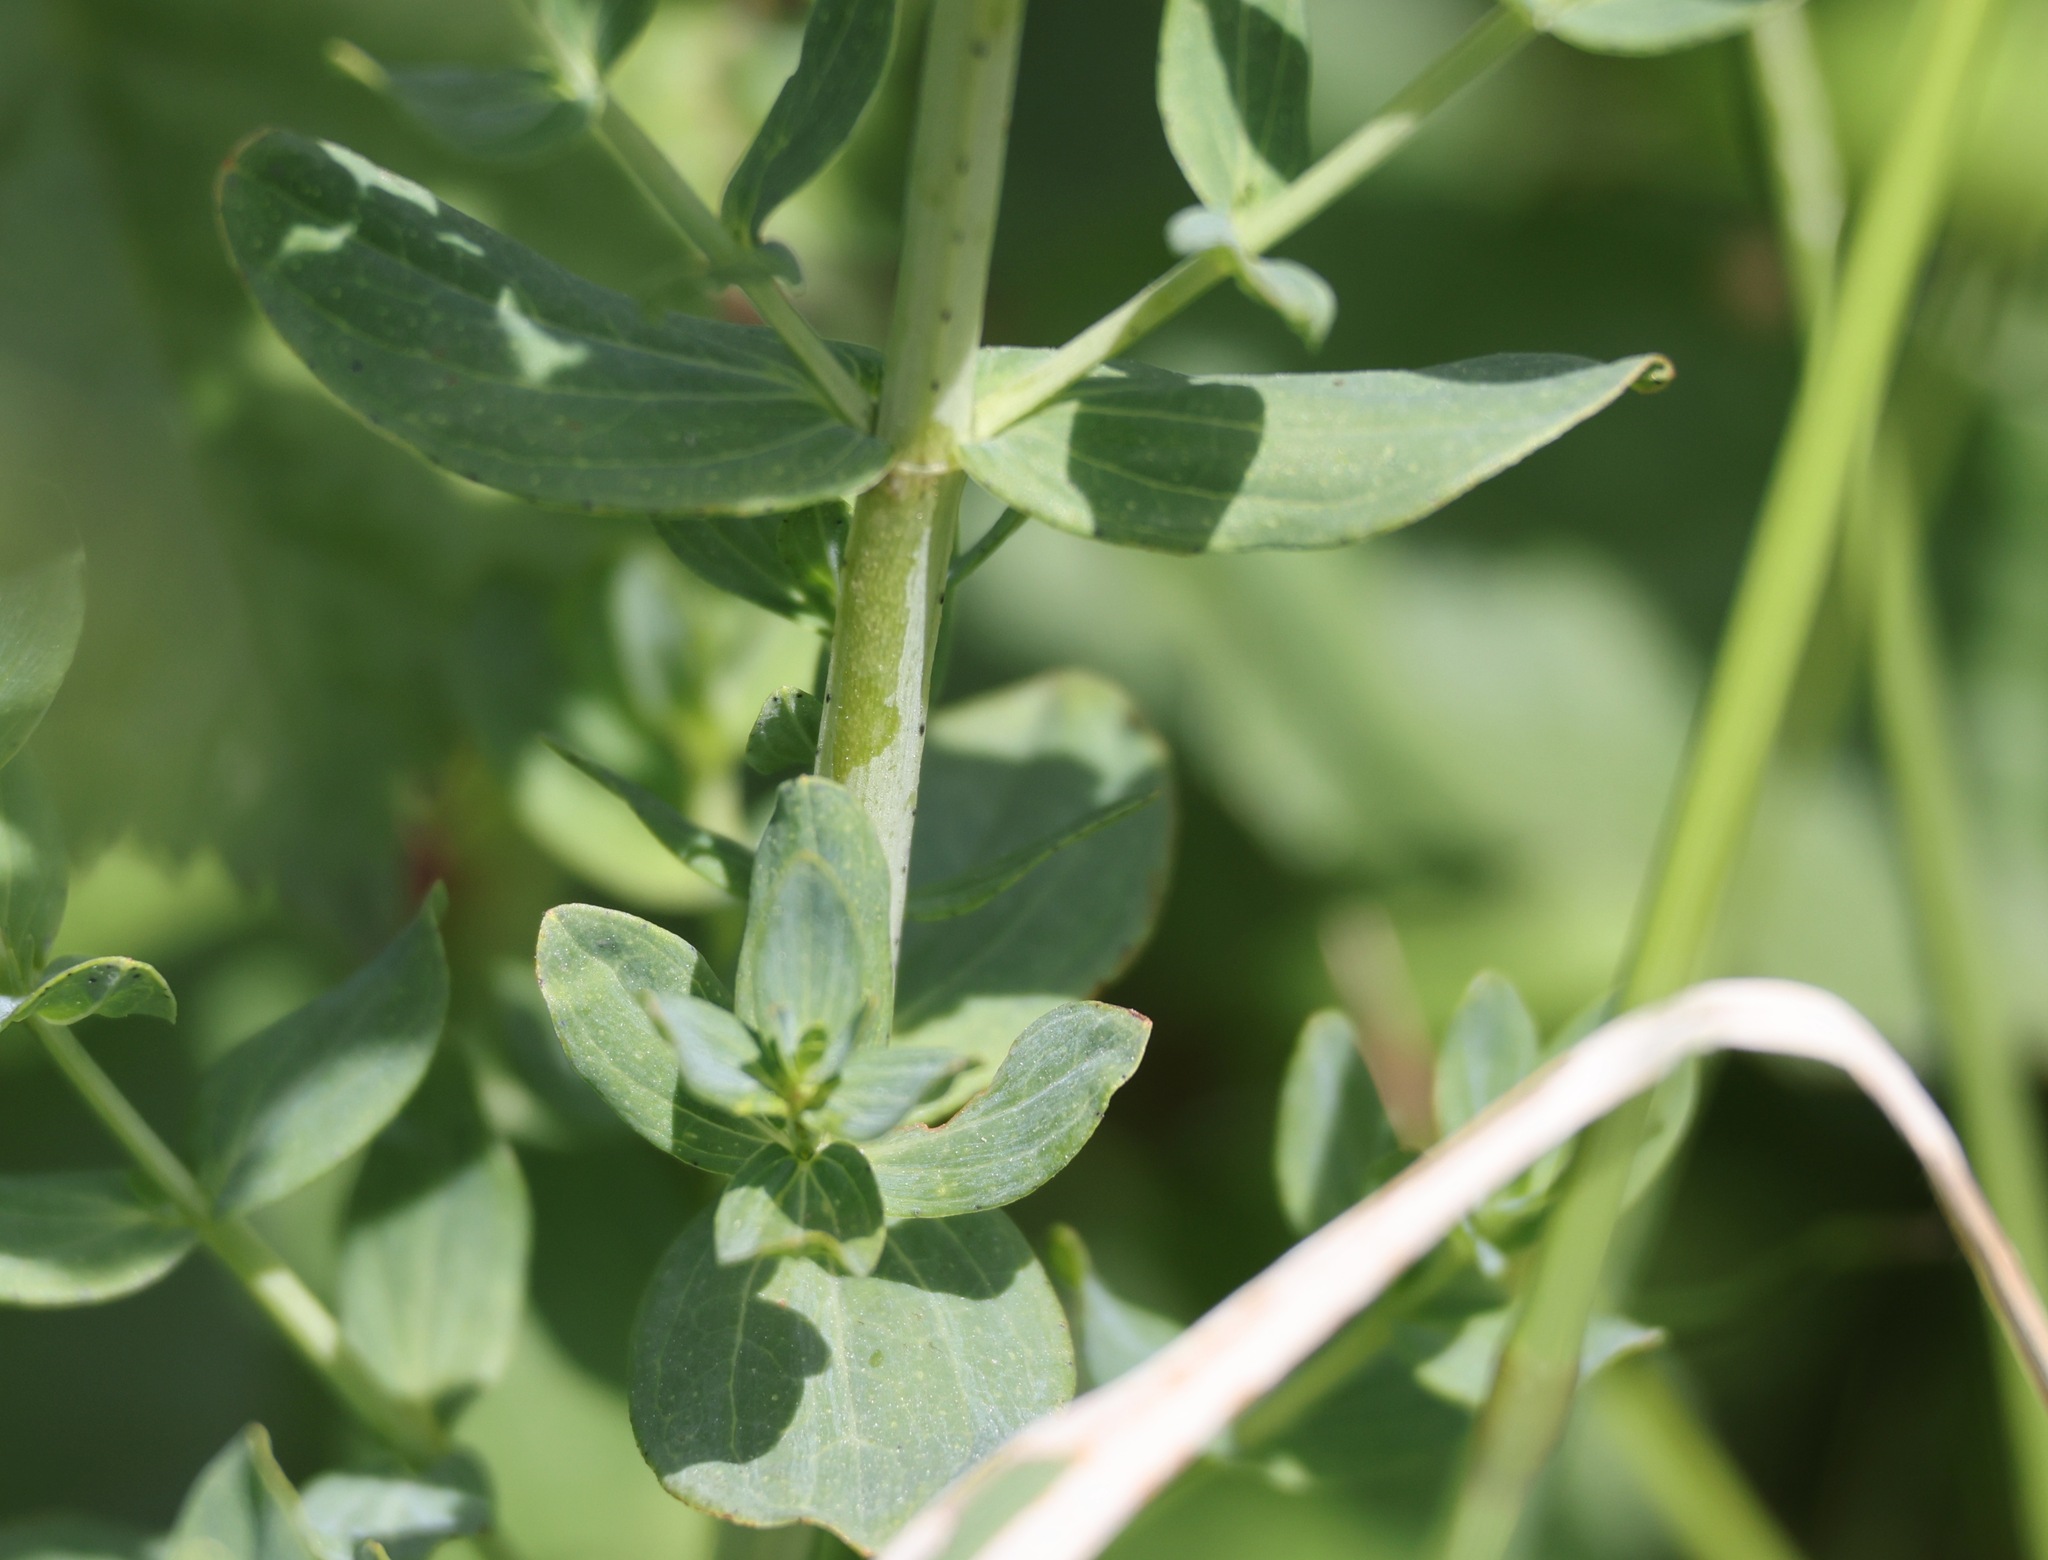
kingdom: Plantae
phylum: Tracheophyta
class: Magnoliopsida
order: Malpighiales
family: Hypericaceae
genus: Hypericum
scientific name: Hypericum perforatum
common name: Common st. johnswort
